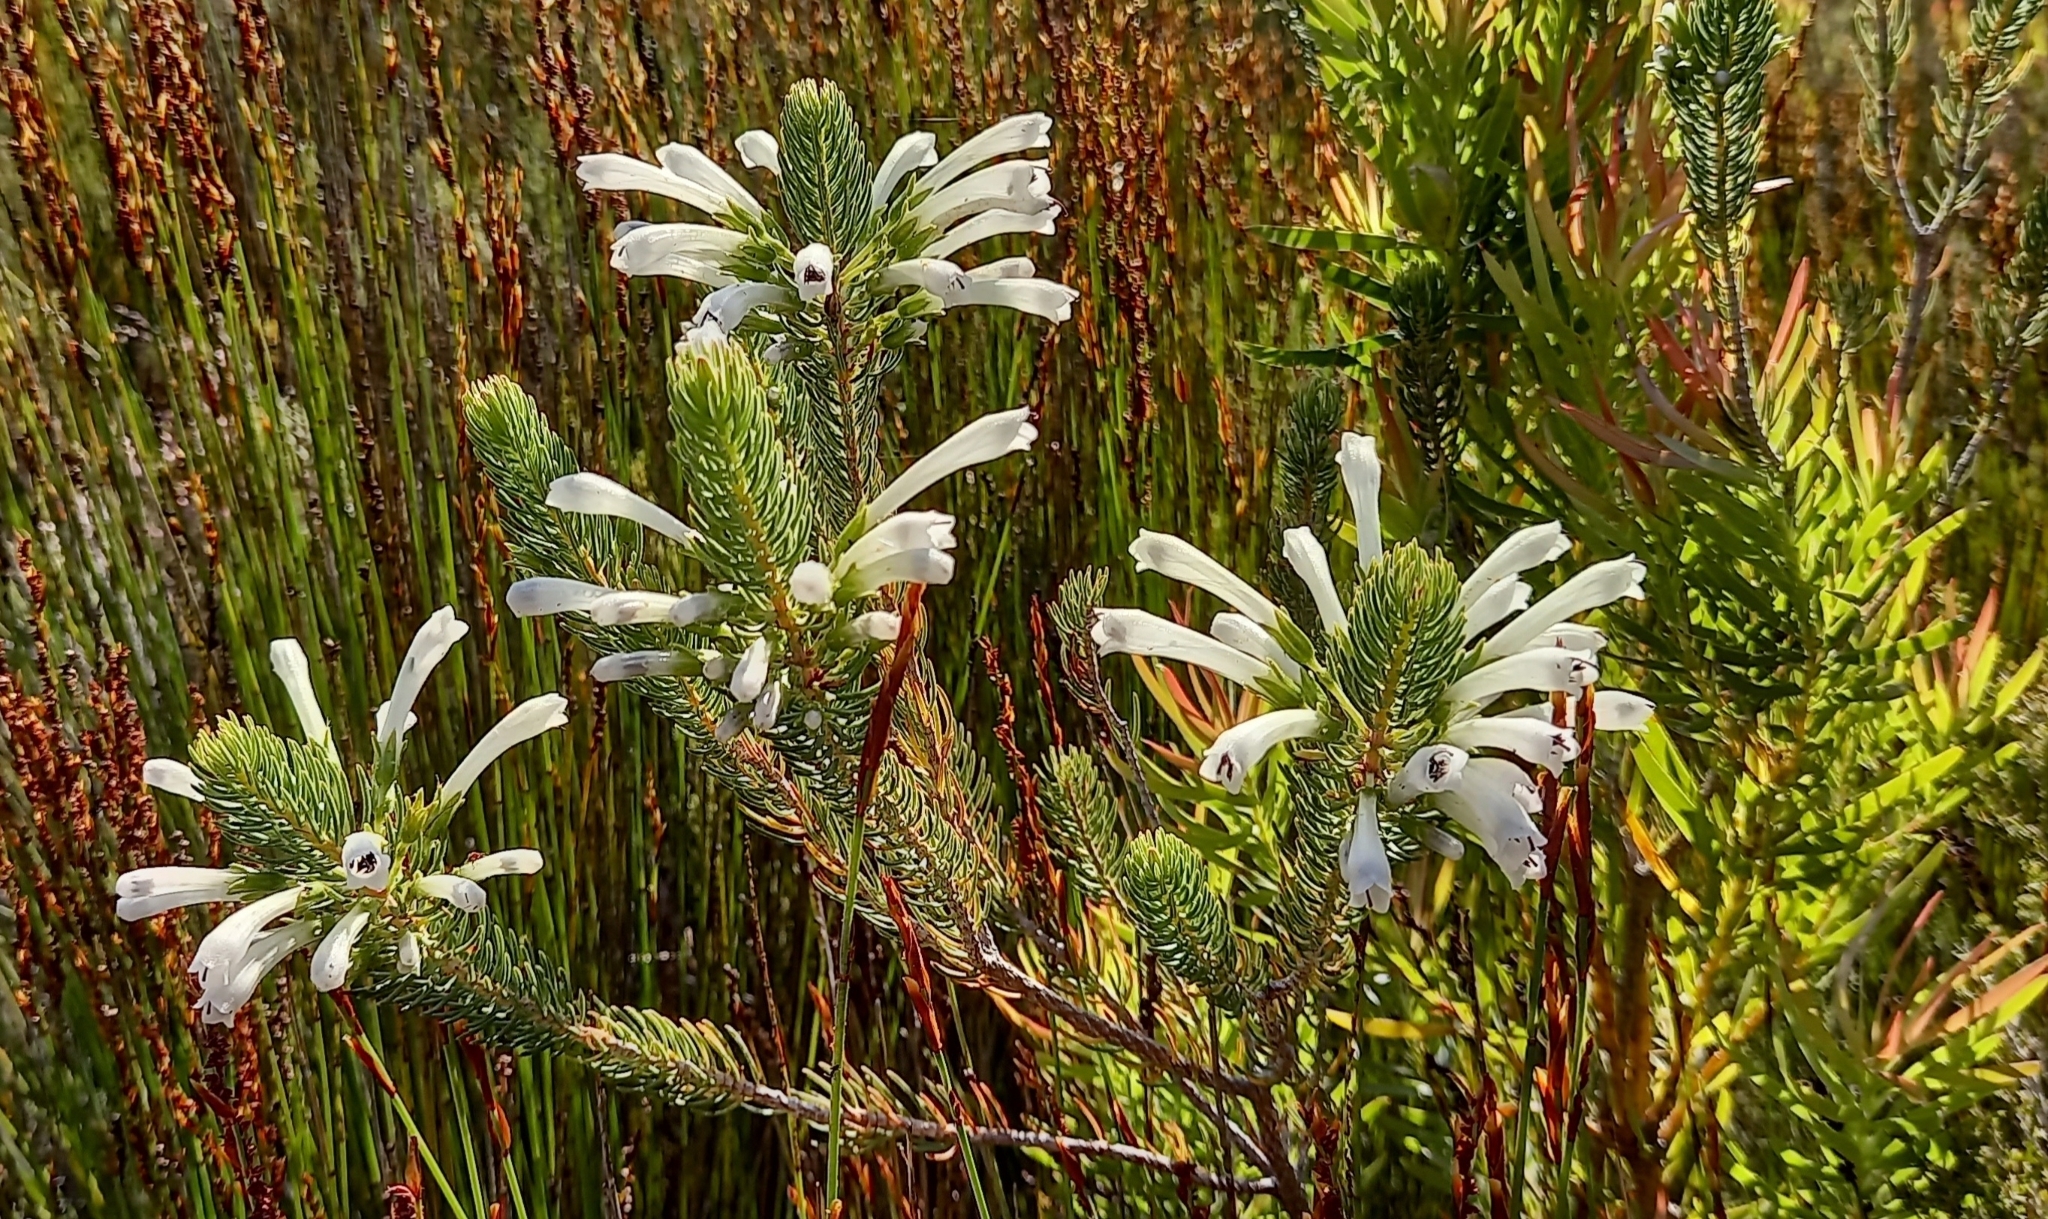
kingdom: Plantae
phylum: Tracheophyta
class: Magnoliopsida
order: Ericales
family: Ericaceae
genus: Erica
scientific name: Erica thomae
